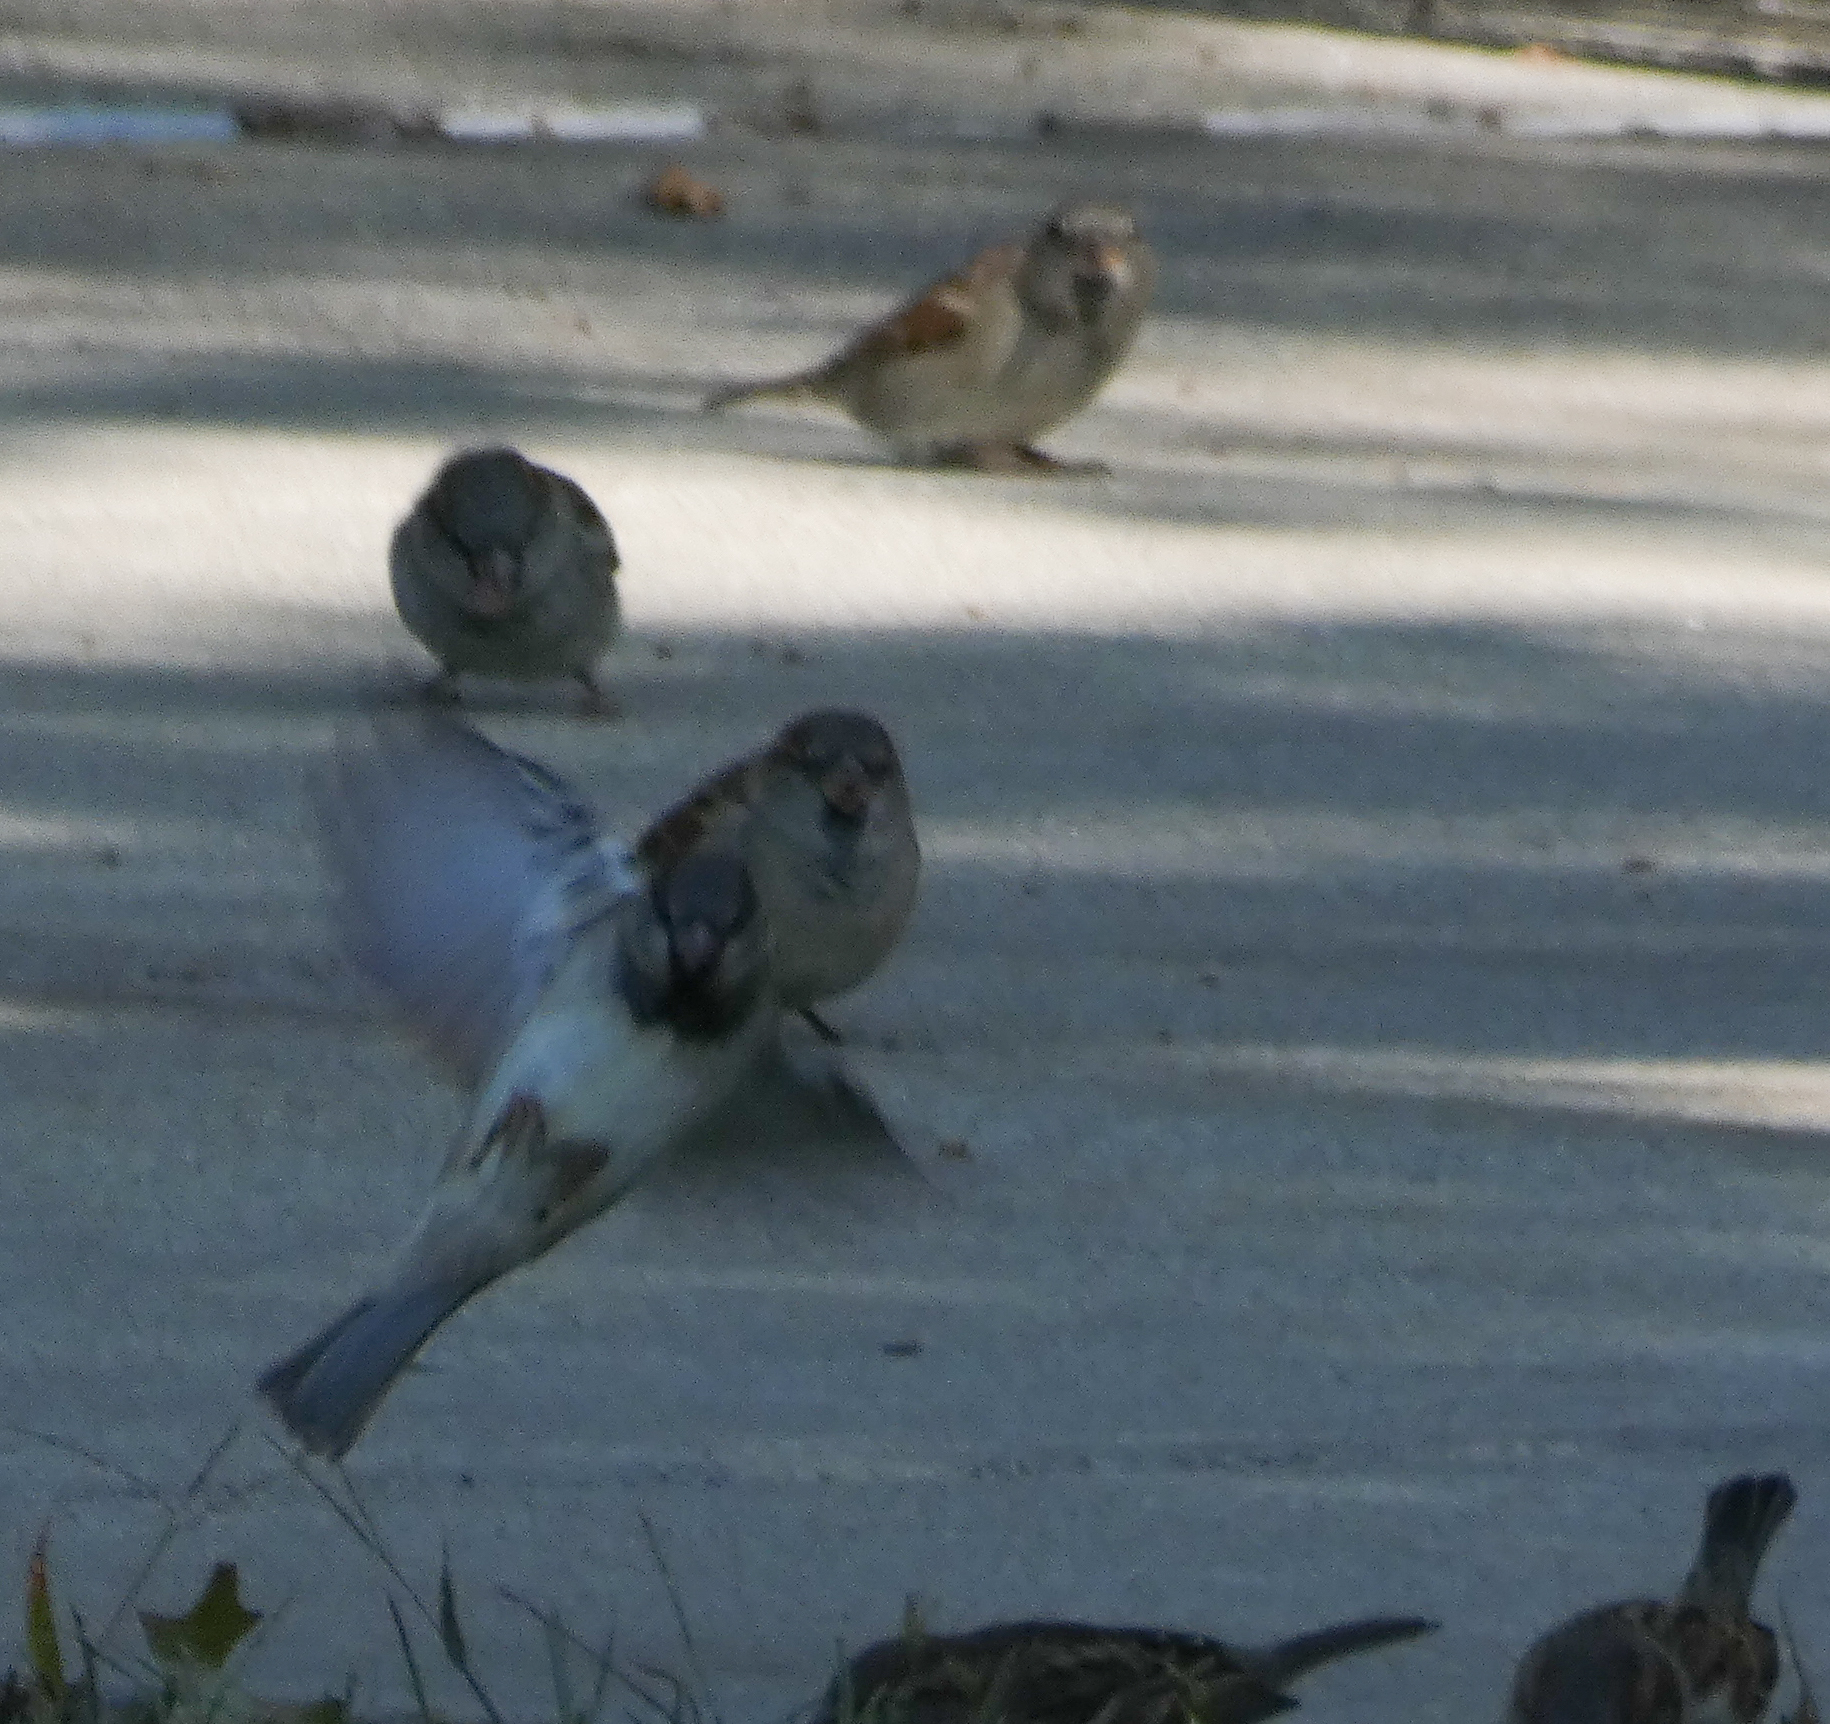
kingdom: Animalia
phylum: Chordata
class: Aves
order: Passeriformes
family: Passeridae
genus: Passer
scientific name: Passer domesticus
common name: House sparrow
